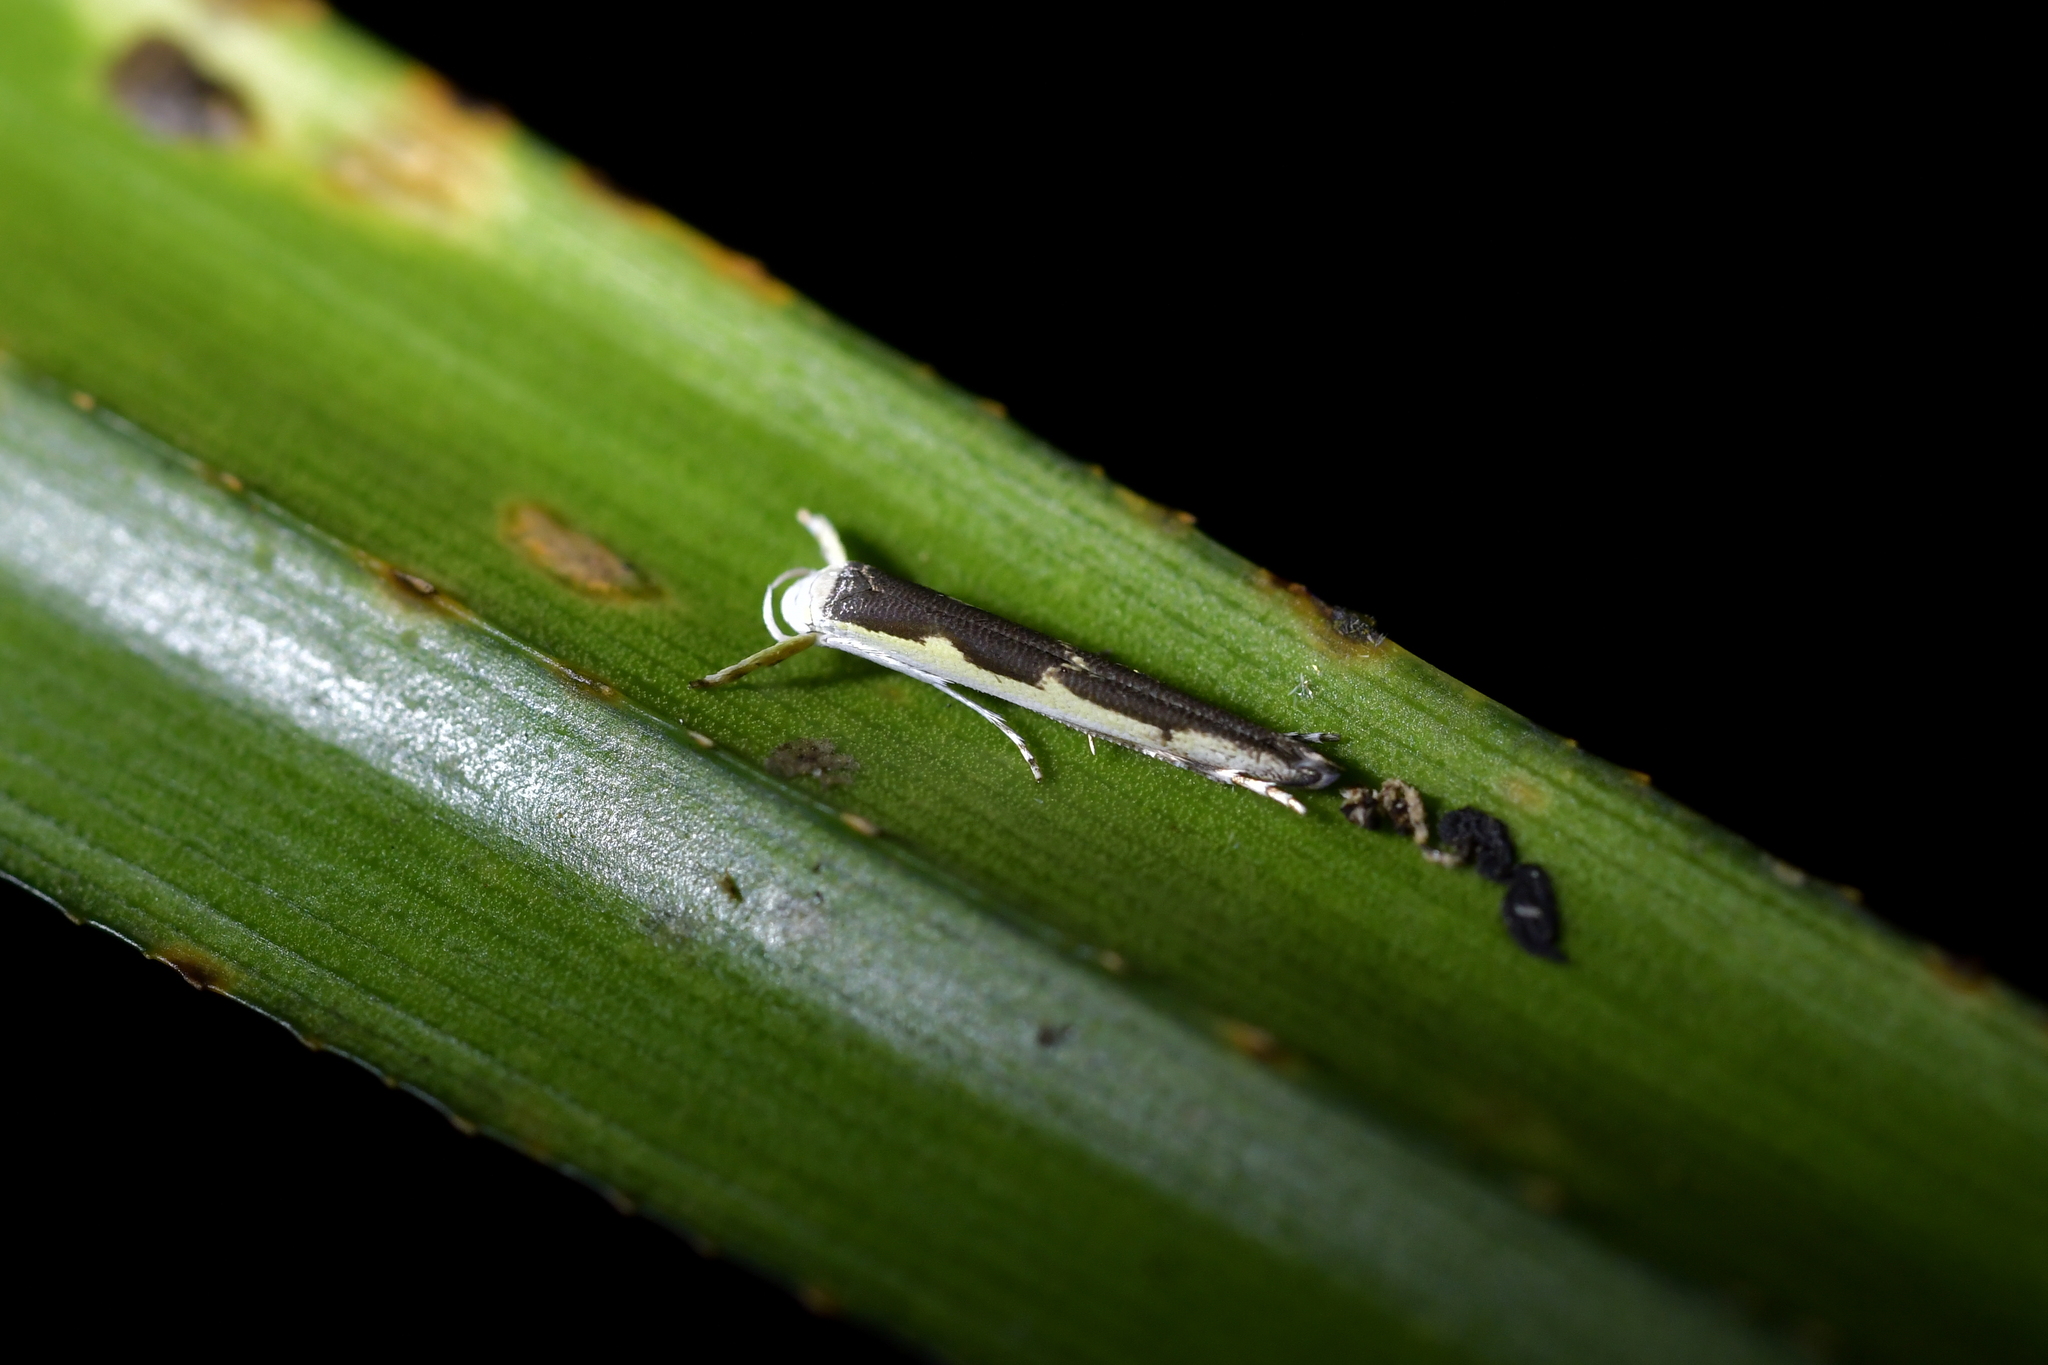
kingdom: Animalia
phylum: Arthropoda
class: Insecta
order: Lepidoptera
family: Roeslerstammiidae
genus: Vanicela
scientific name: Vanicela disjunctella
